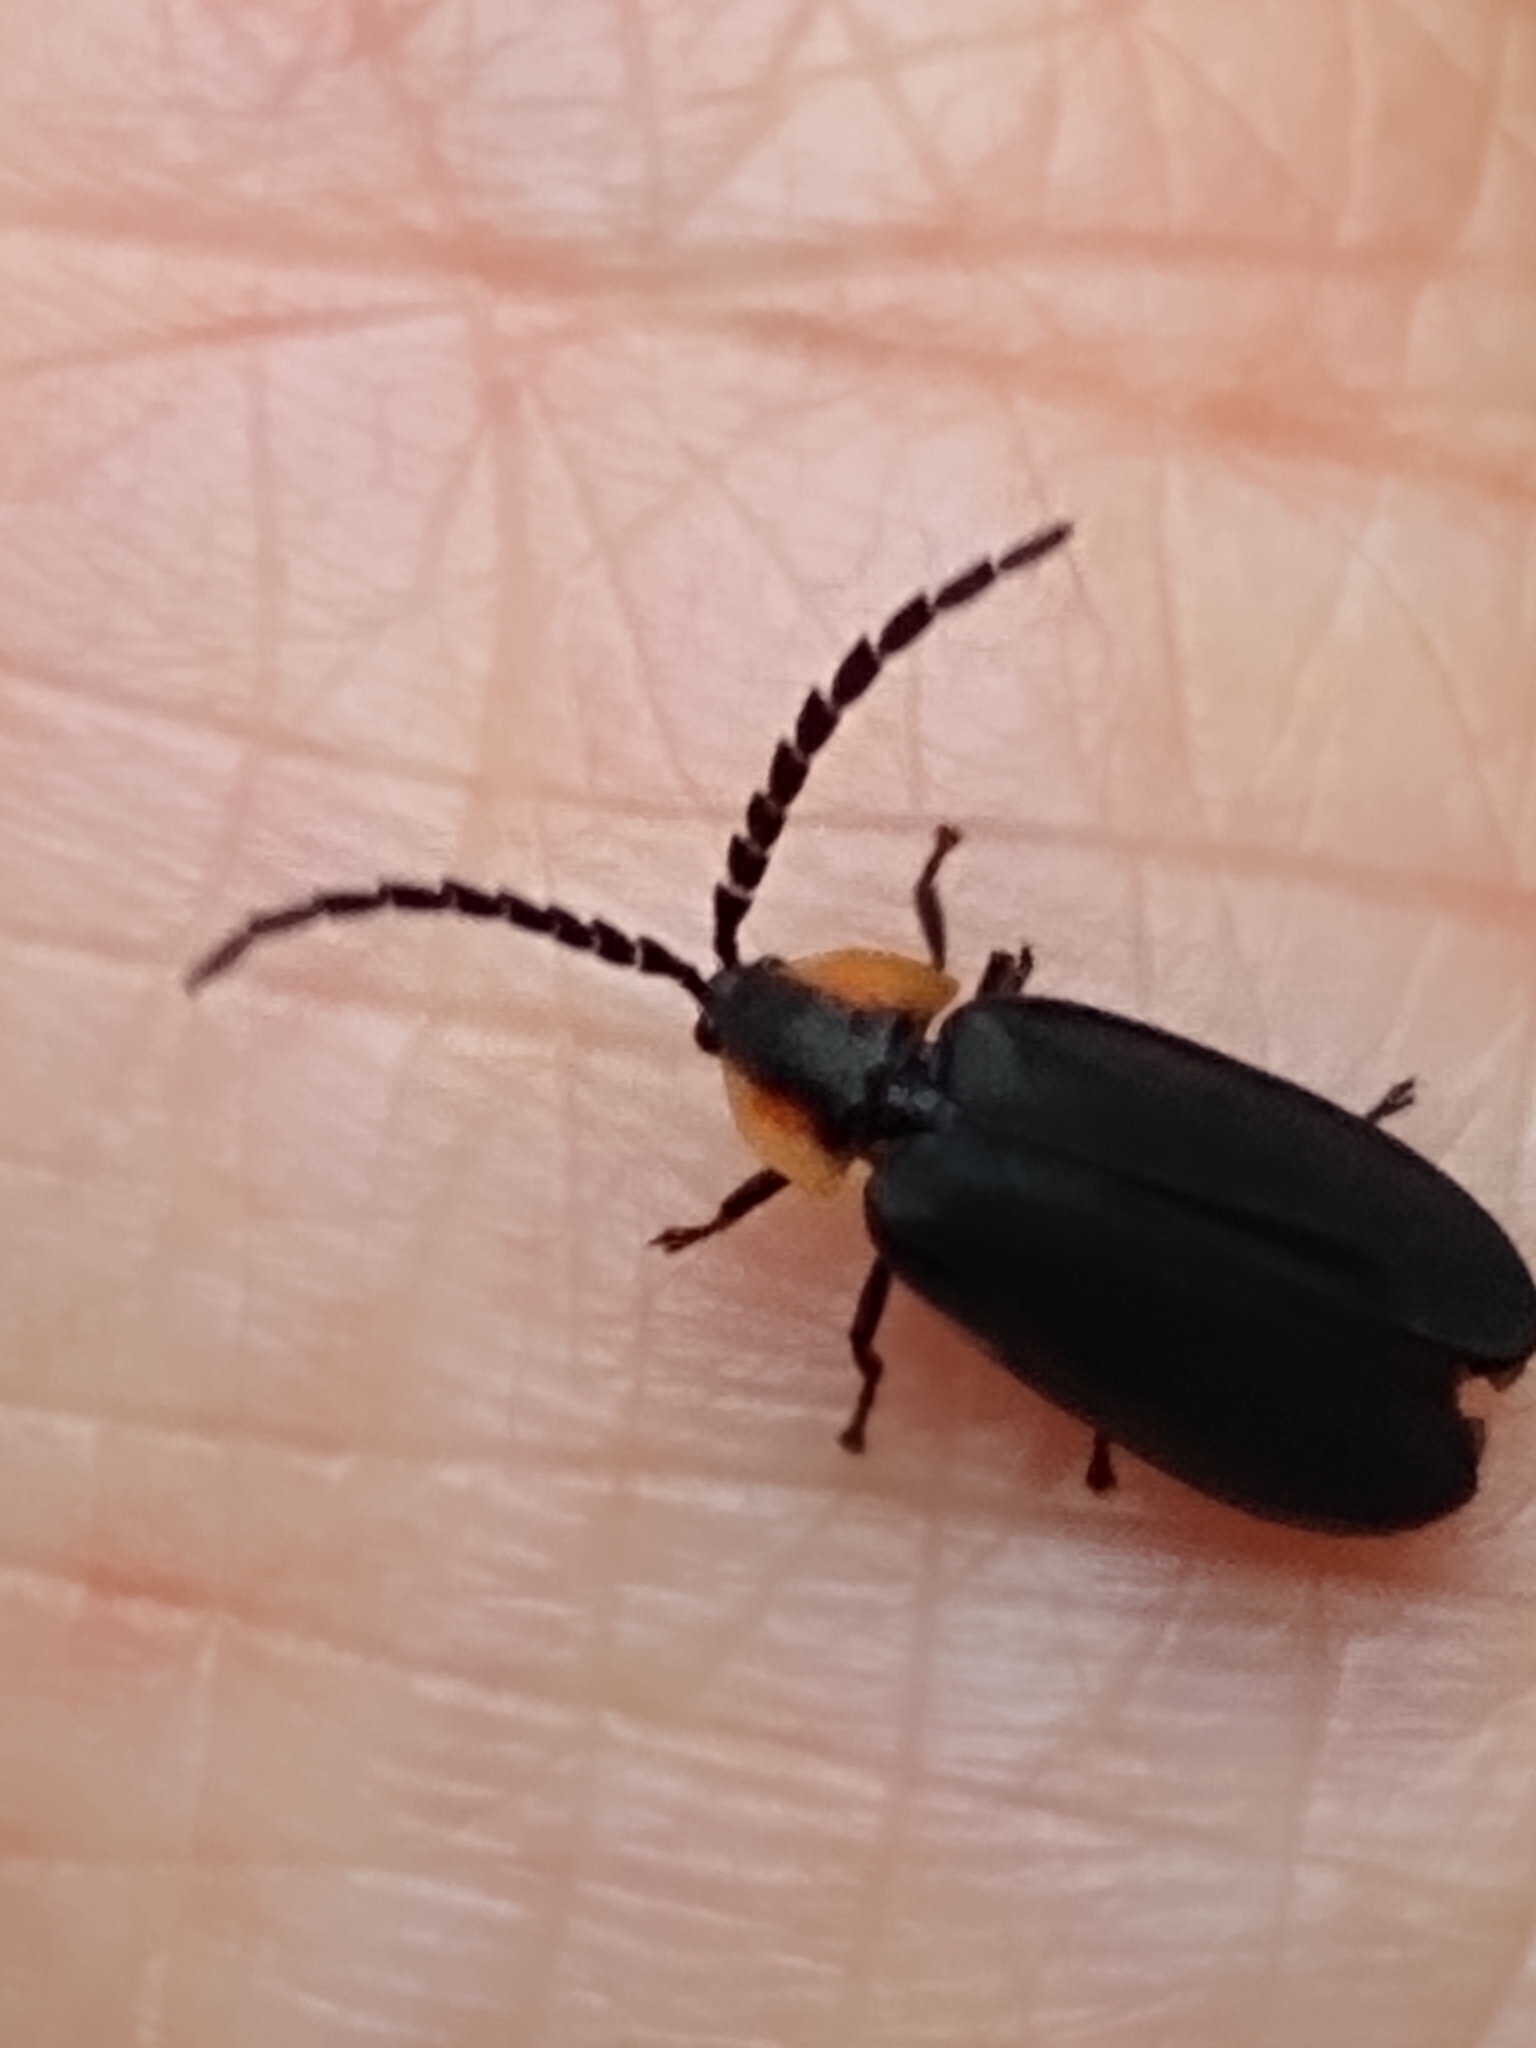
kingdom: Animalia
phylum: Arthropoda
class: Insecta
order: Coleoptera
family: Lampyridae
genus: Lucidota
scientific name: Lucidota atra
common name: Black firefly
